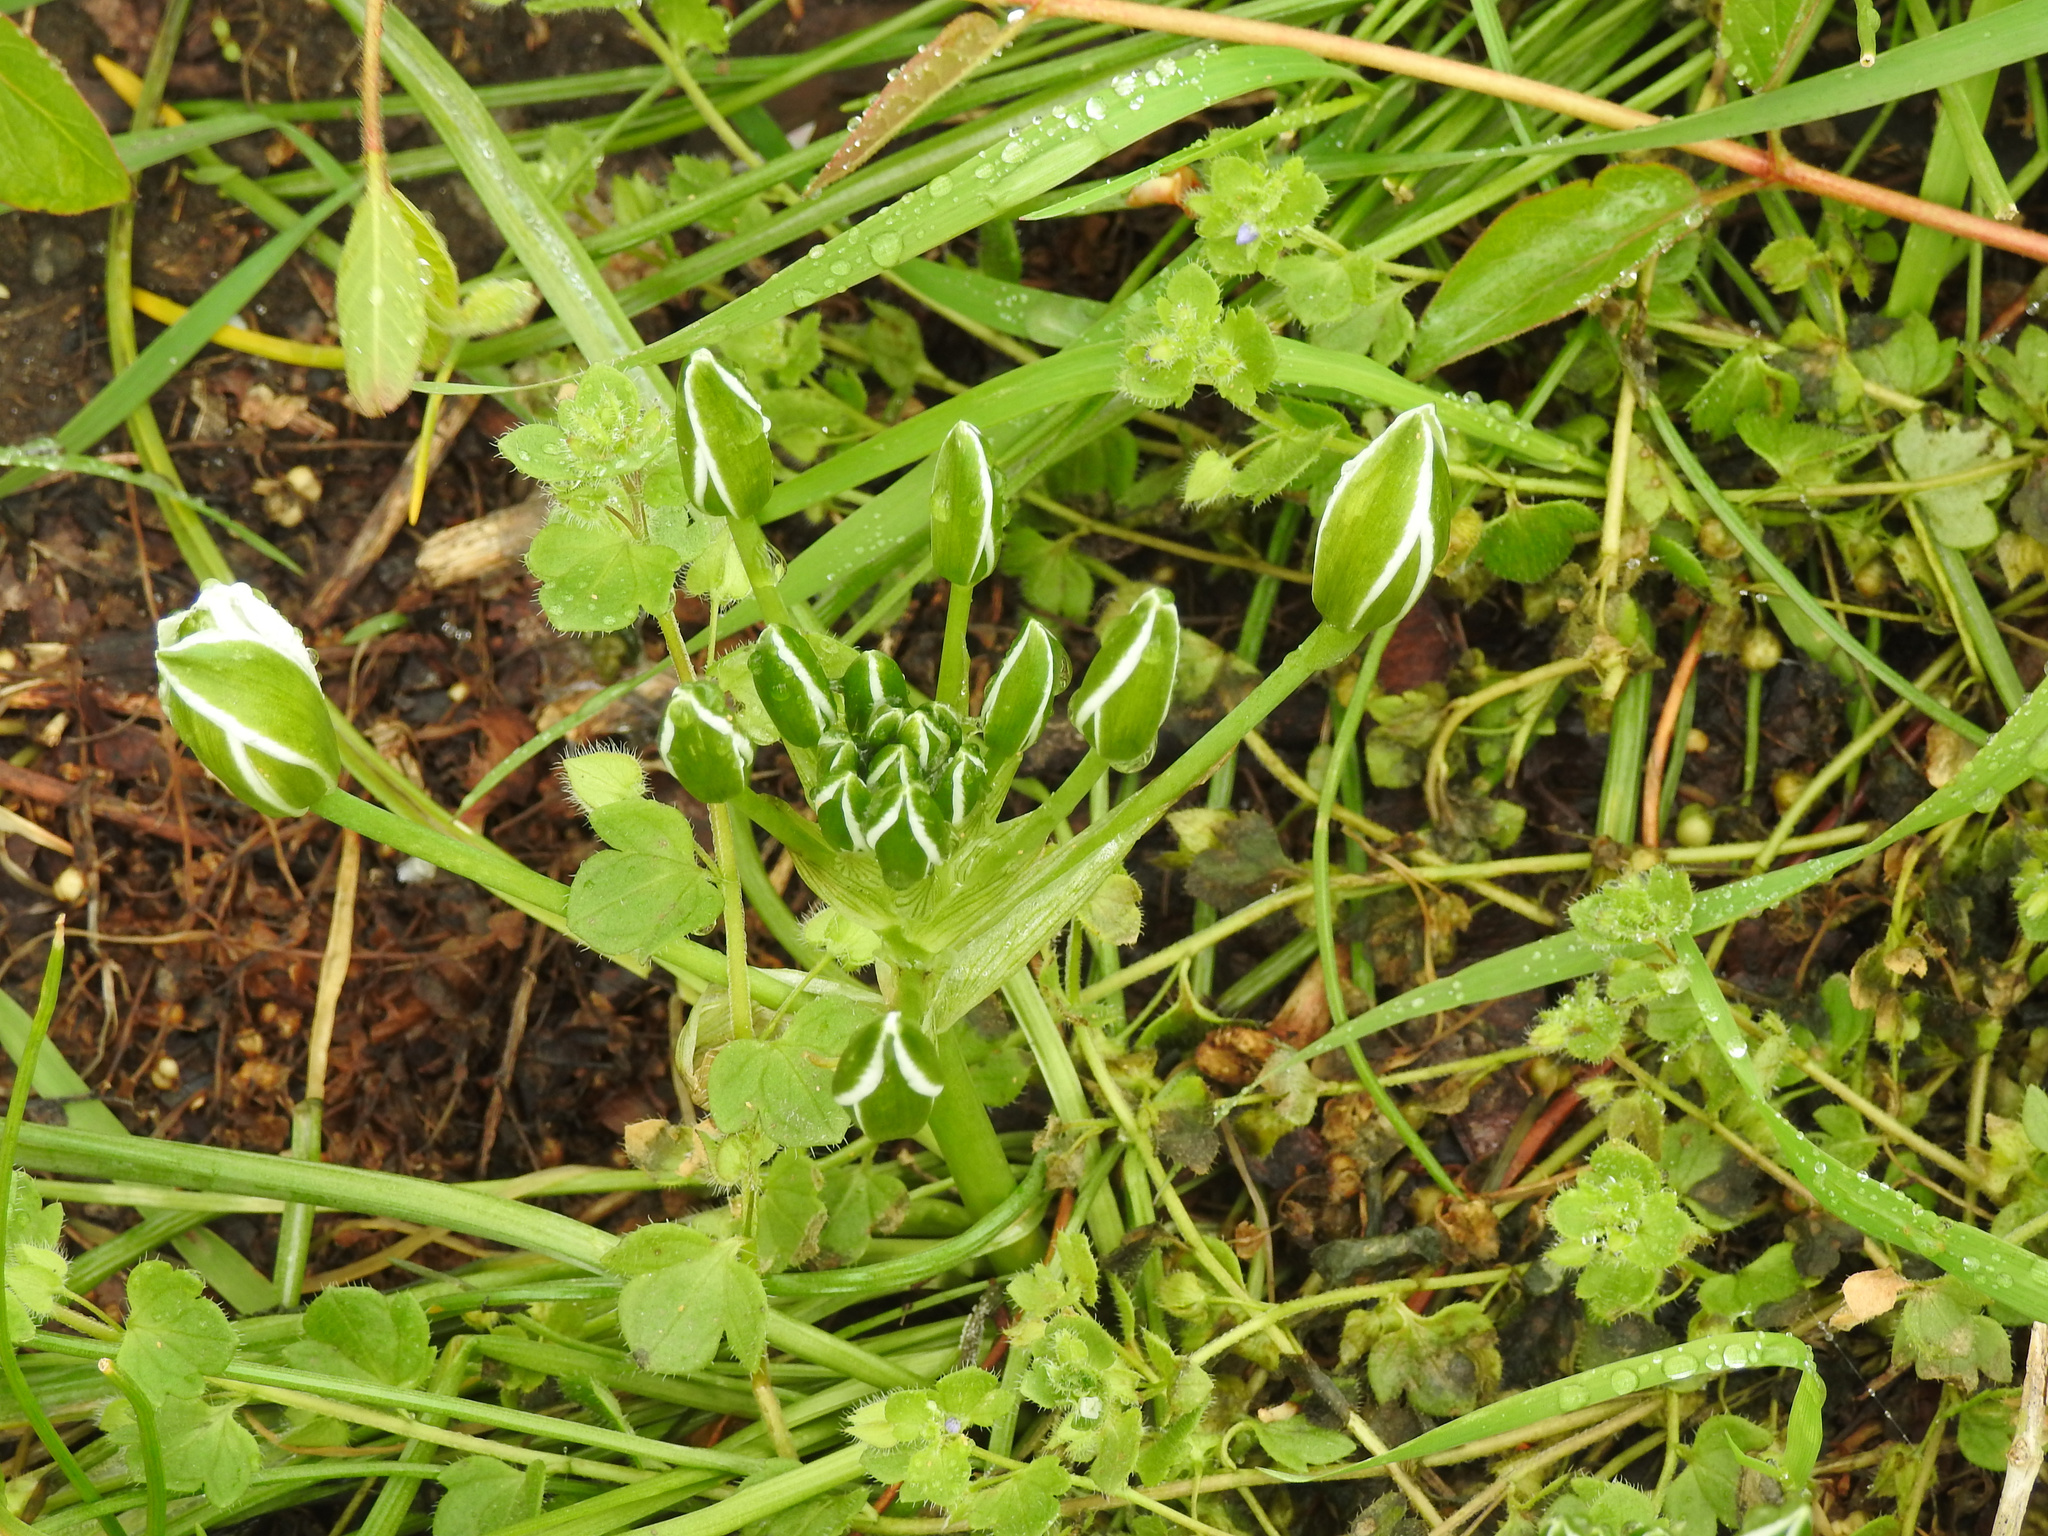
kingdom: Plantae
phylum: Tracheophyta
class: Liliopsida
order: Asparagales
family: Asparagaceae
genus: Ornithogalum
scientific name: Ornithogalum umbellatum
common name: Garden star-of-bethlehem
